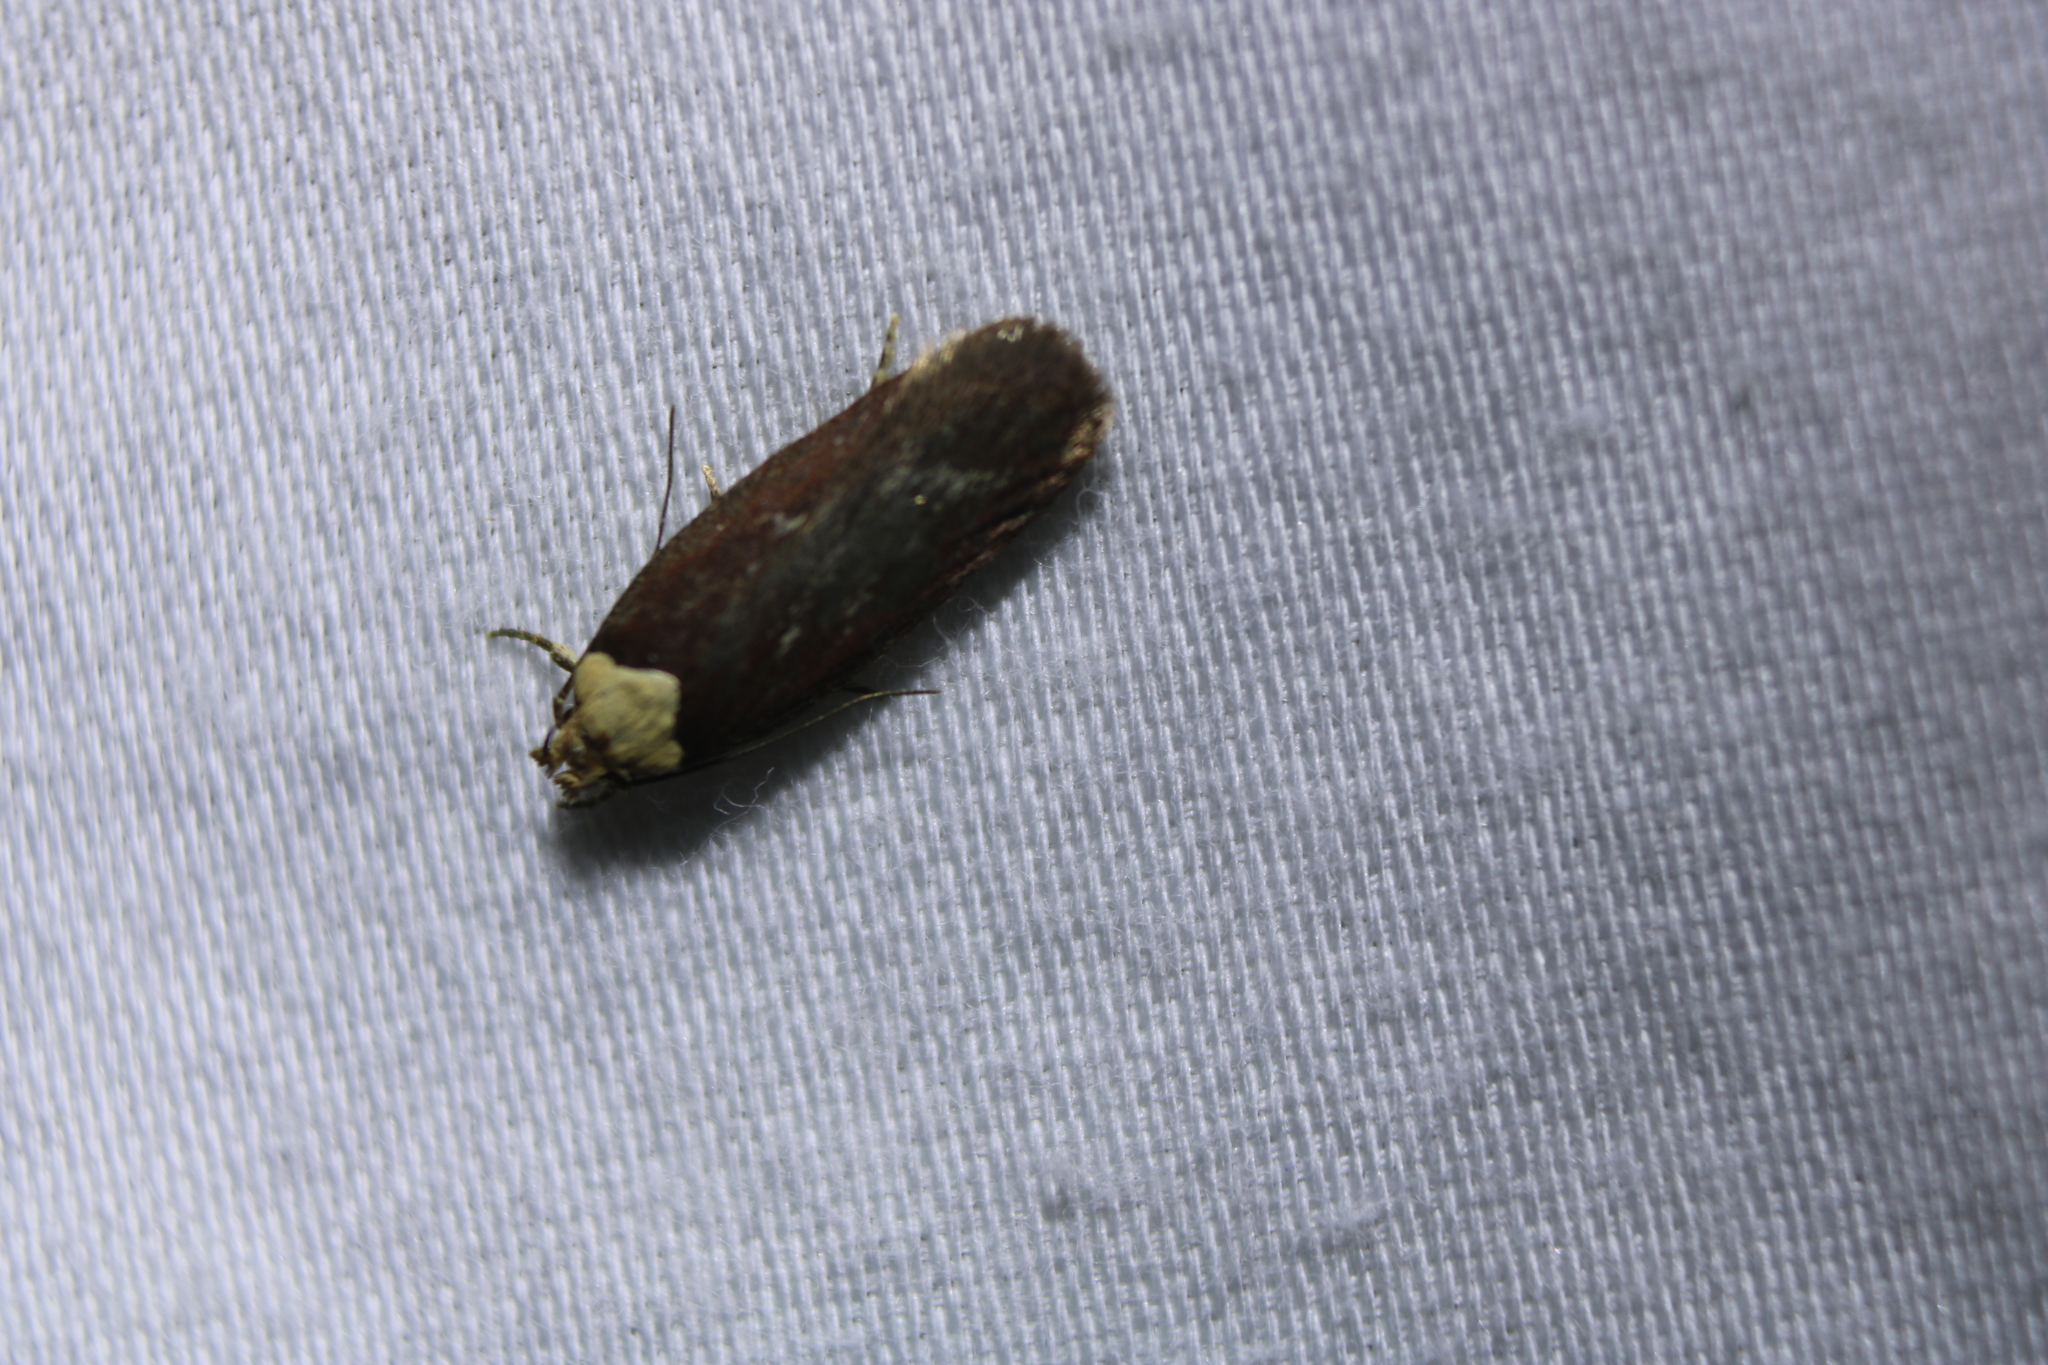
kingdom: Animalia
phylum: Arthropoda
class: Insecta
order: Lepidoptera
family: Depressariidae
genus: Depressaria
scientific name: Depressaria depressana
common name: Lost flat-body
